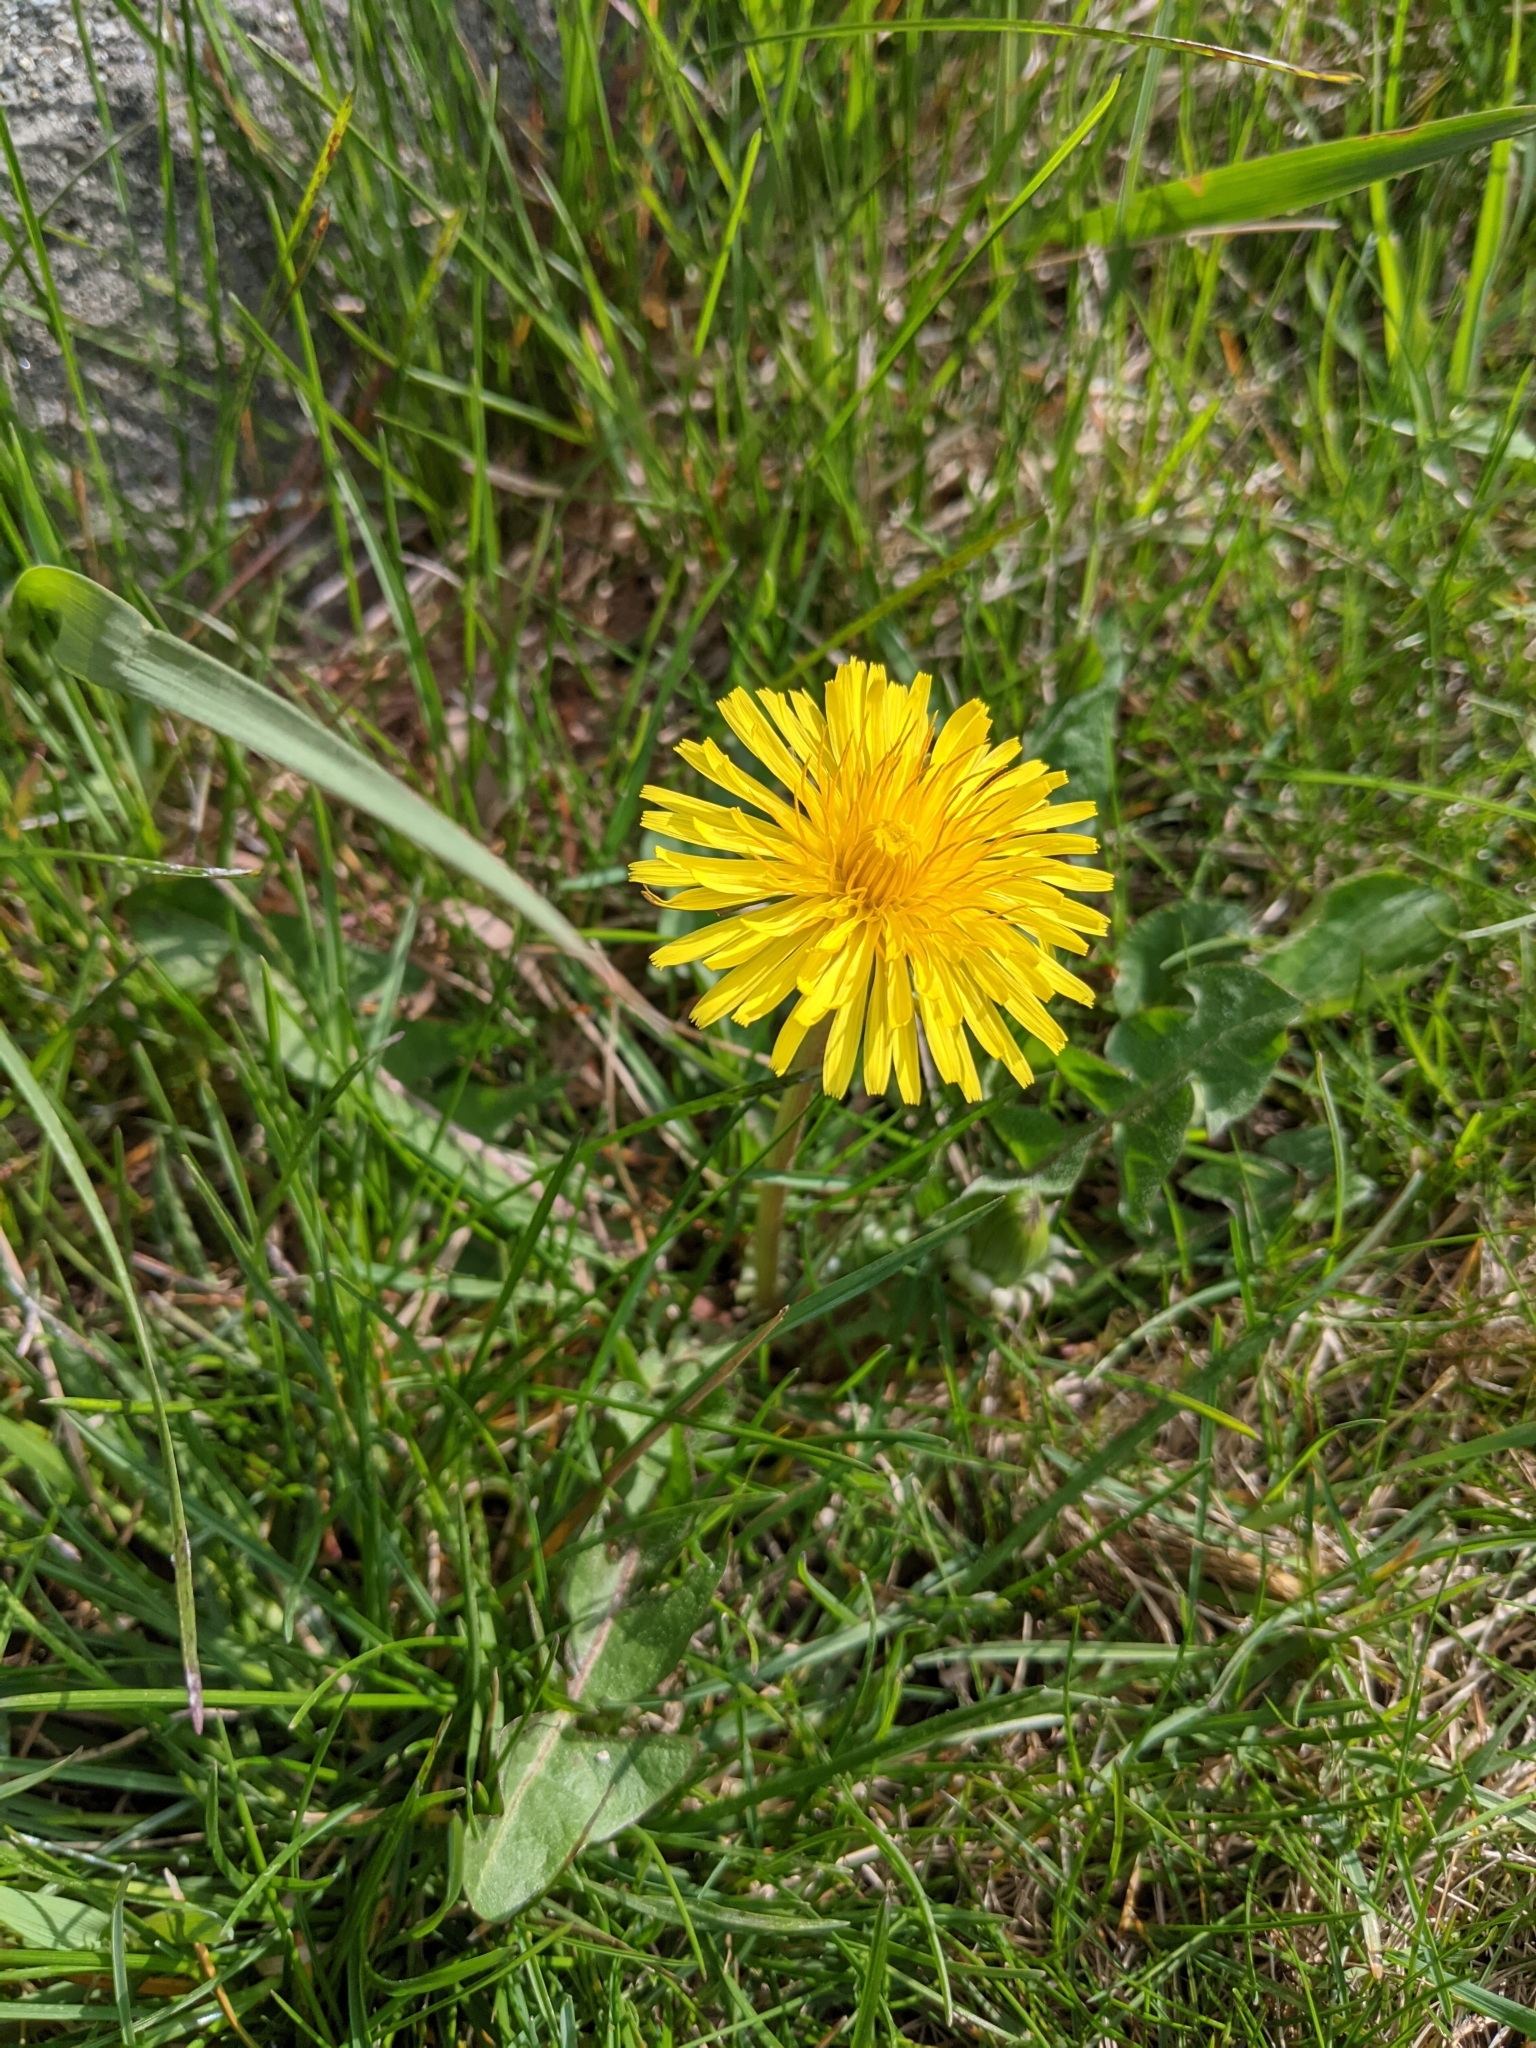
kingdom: Plantae
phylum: Tracheophyta
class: Magnoliopsida
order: Asterales
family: Asteraceae
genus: Taraxacum
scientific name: Taraxacum officinale
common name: Common dandelion
